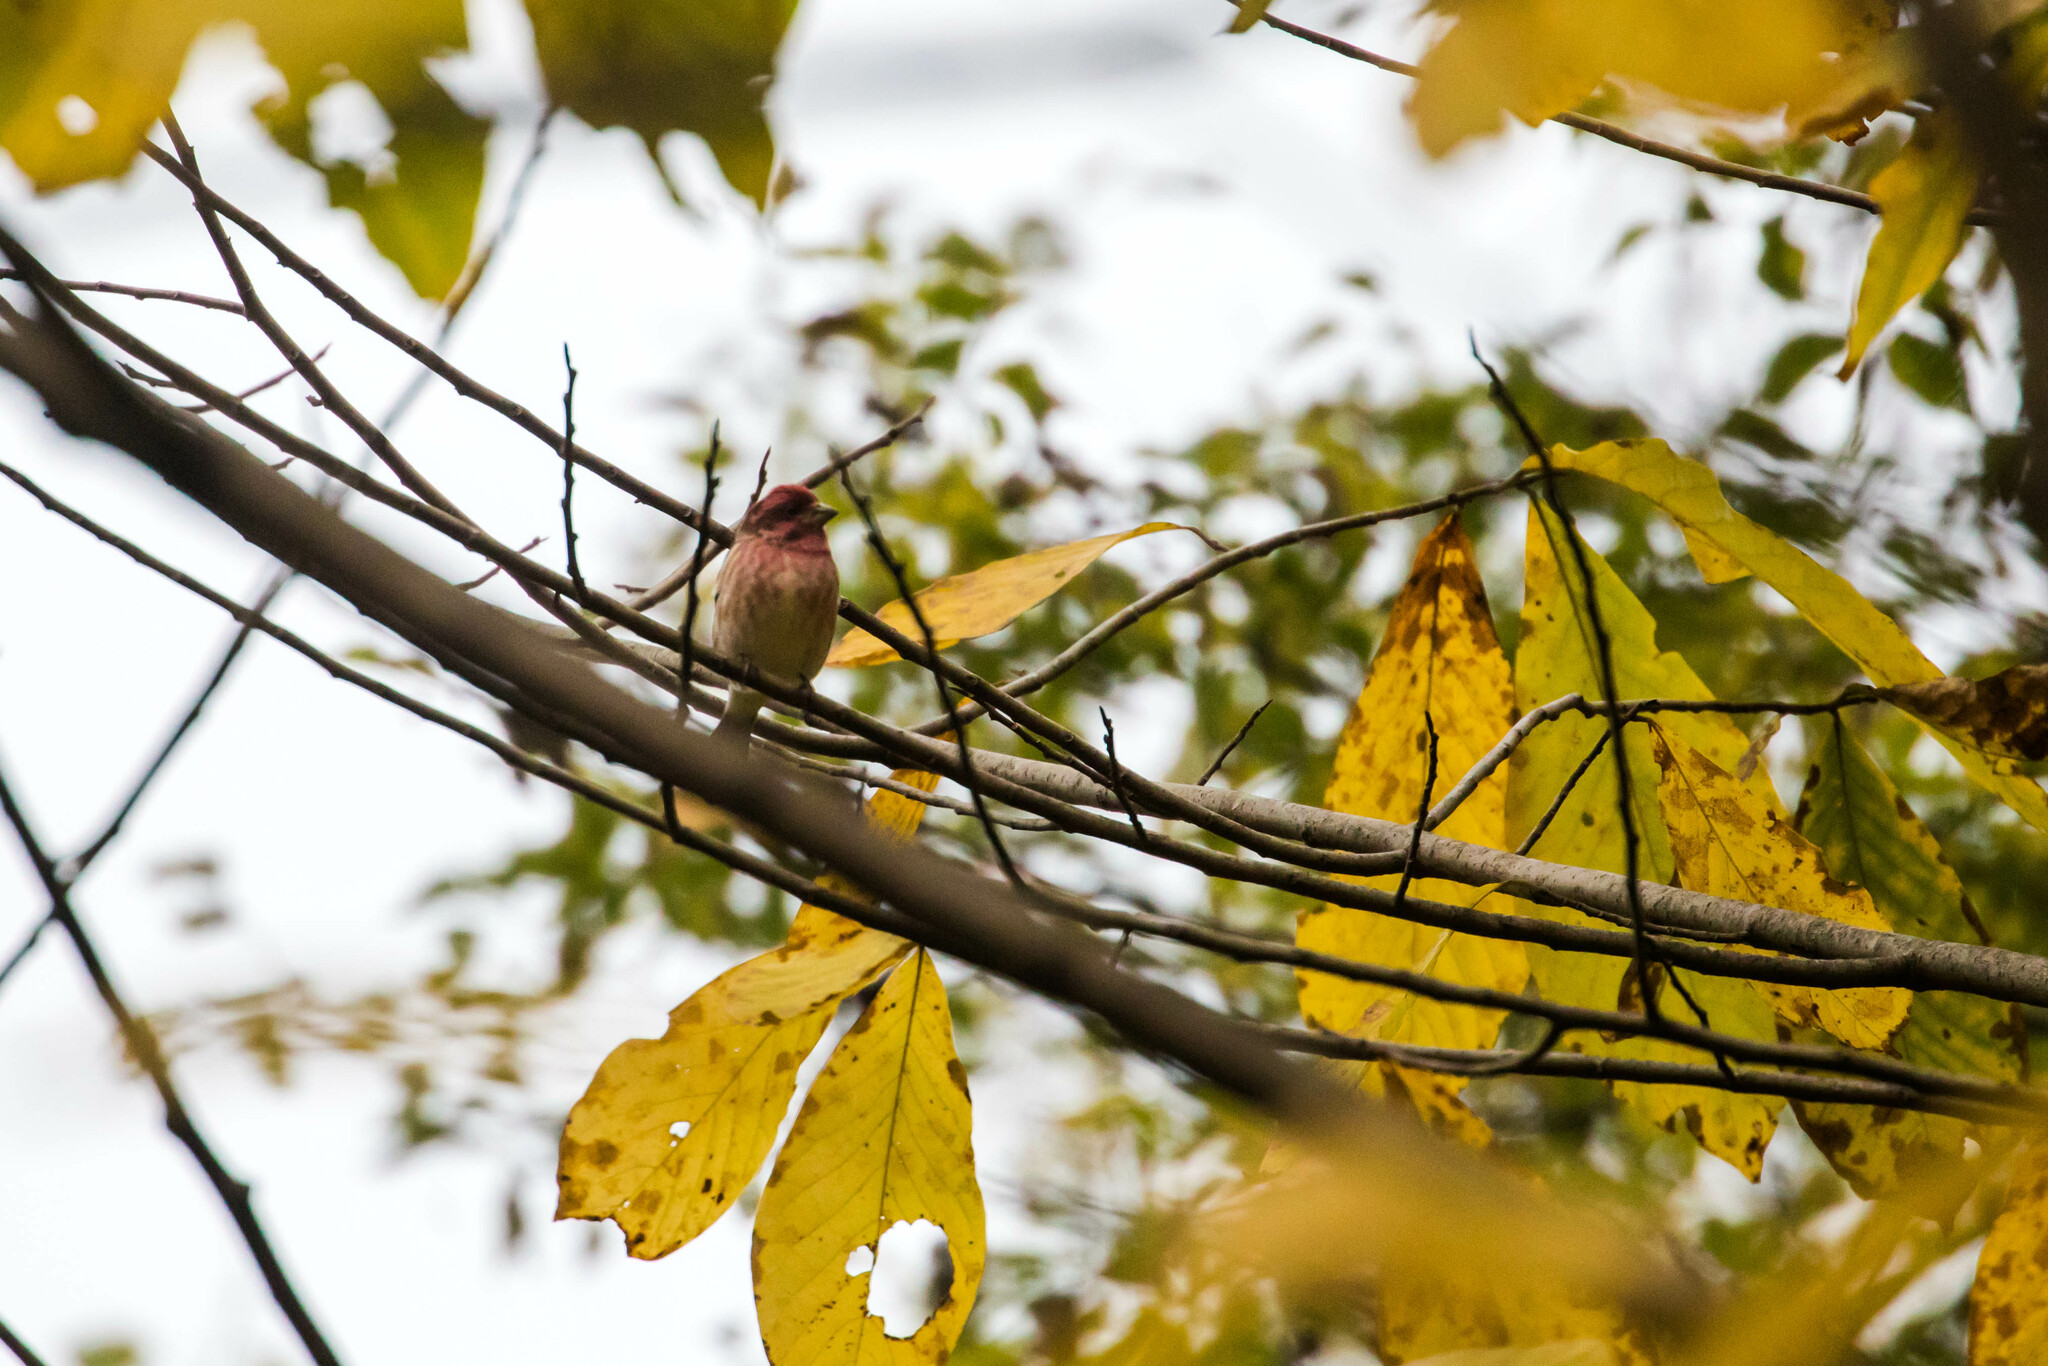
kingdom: Animalia
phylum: Chordata
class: Aves
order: Passeriformes
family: Fringillidae
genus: Haemorhous
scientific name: Haemorhous purpureus
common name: Purple finch
